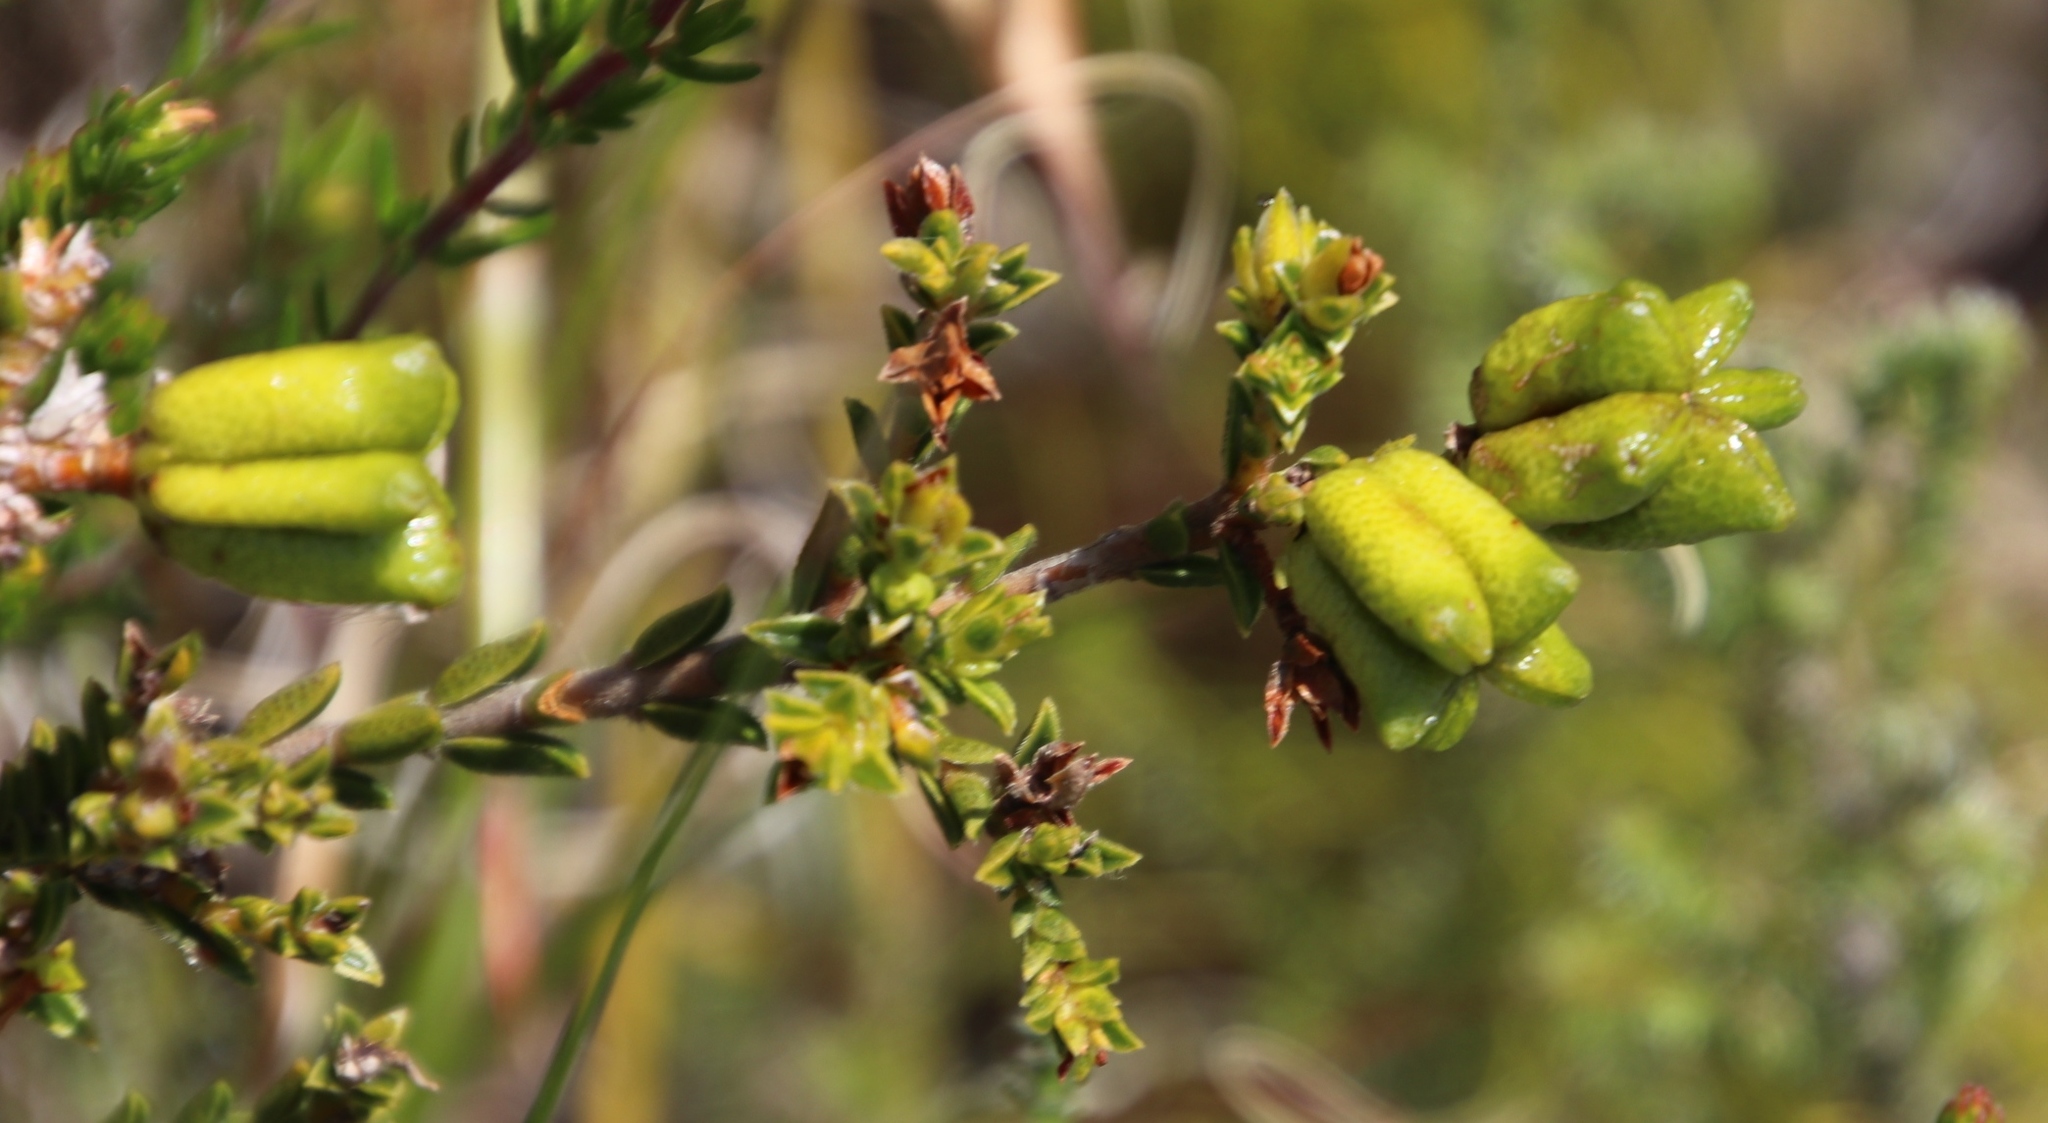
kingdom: Plantae
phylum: Tracheophyta
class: Magnoliopsida
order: Sapindales
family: Rutaceae
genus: Diosma
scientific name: Diosma oppositifolia
